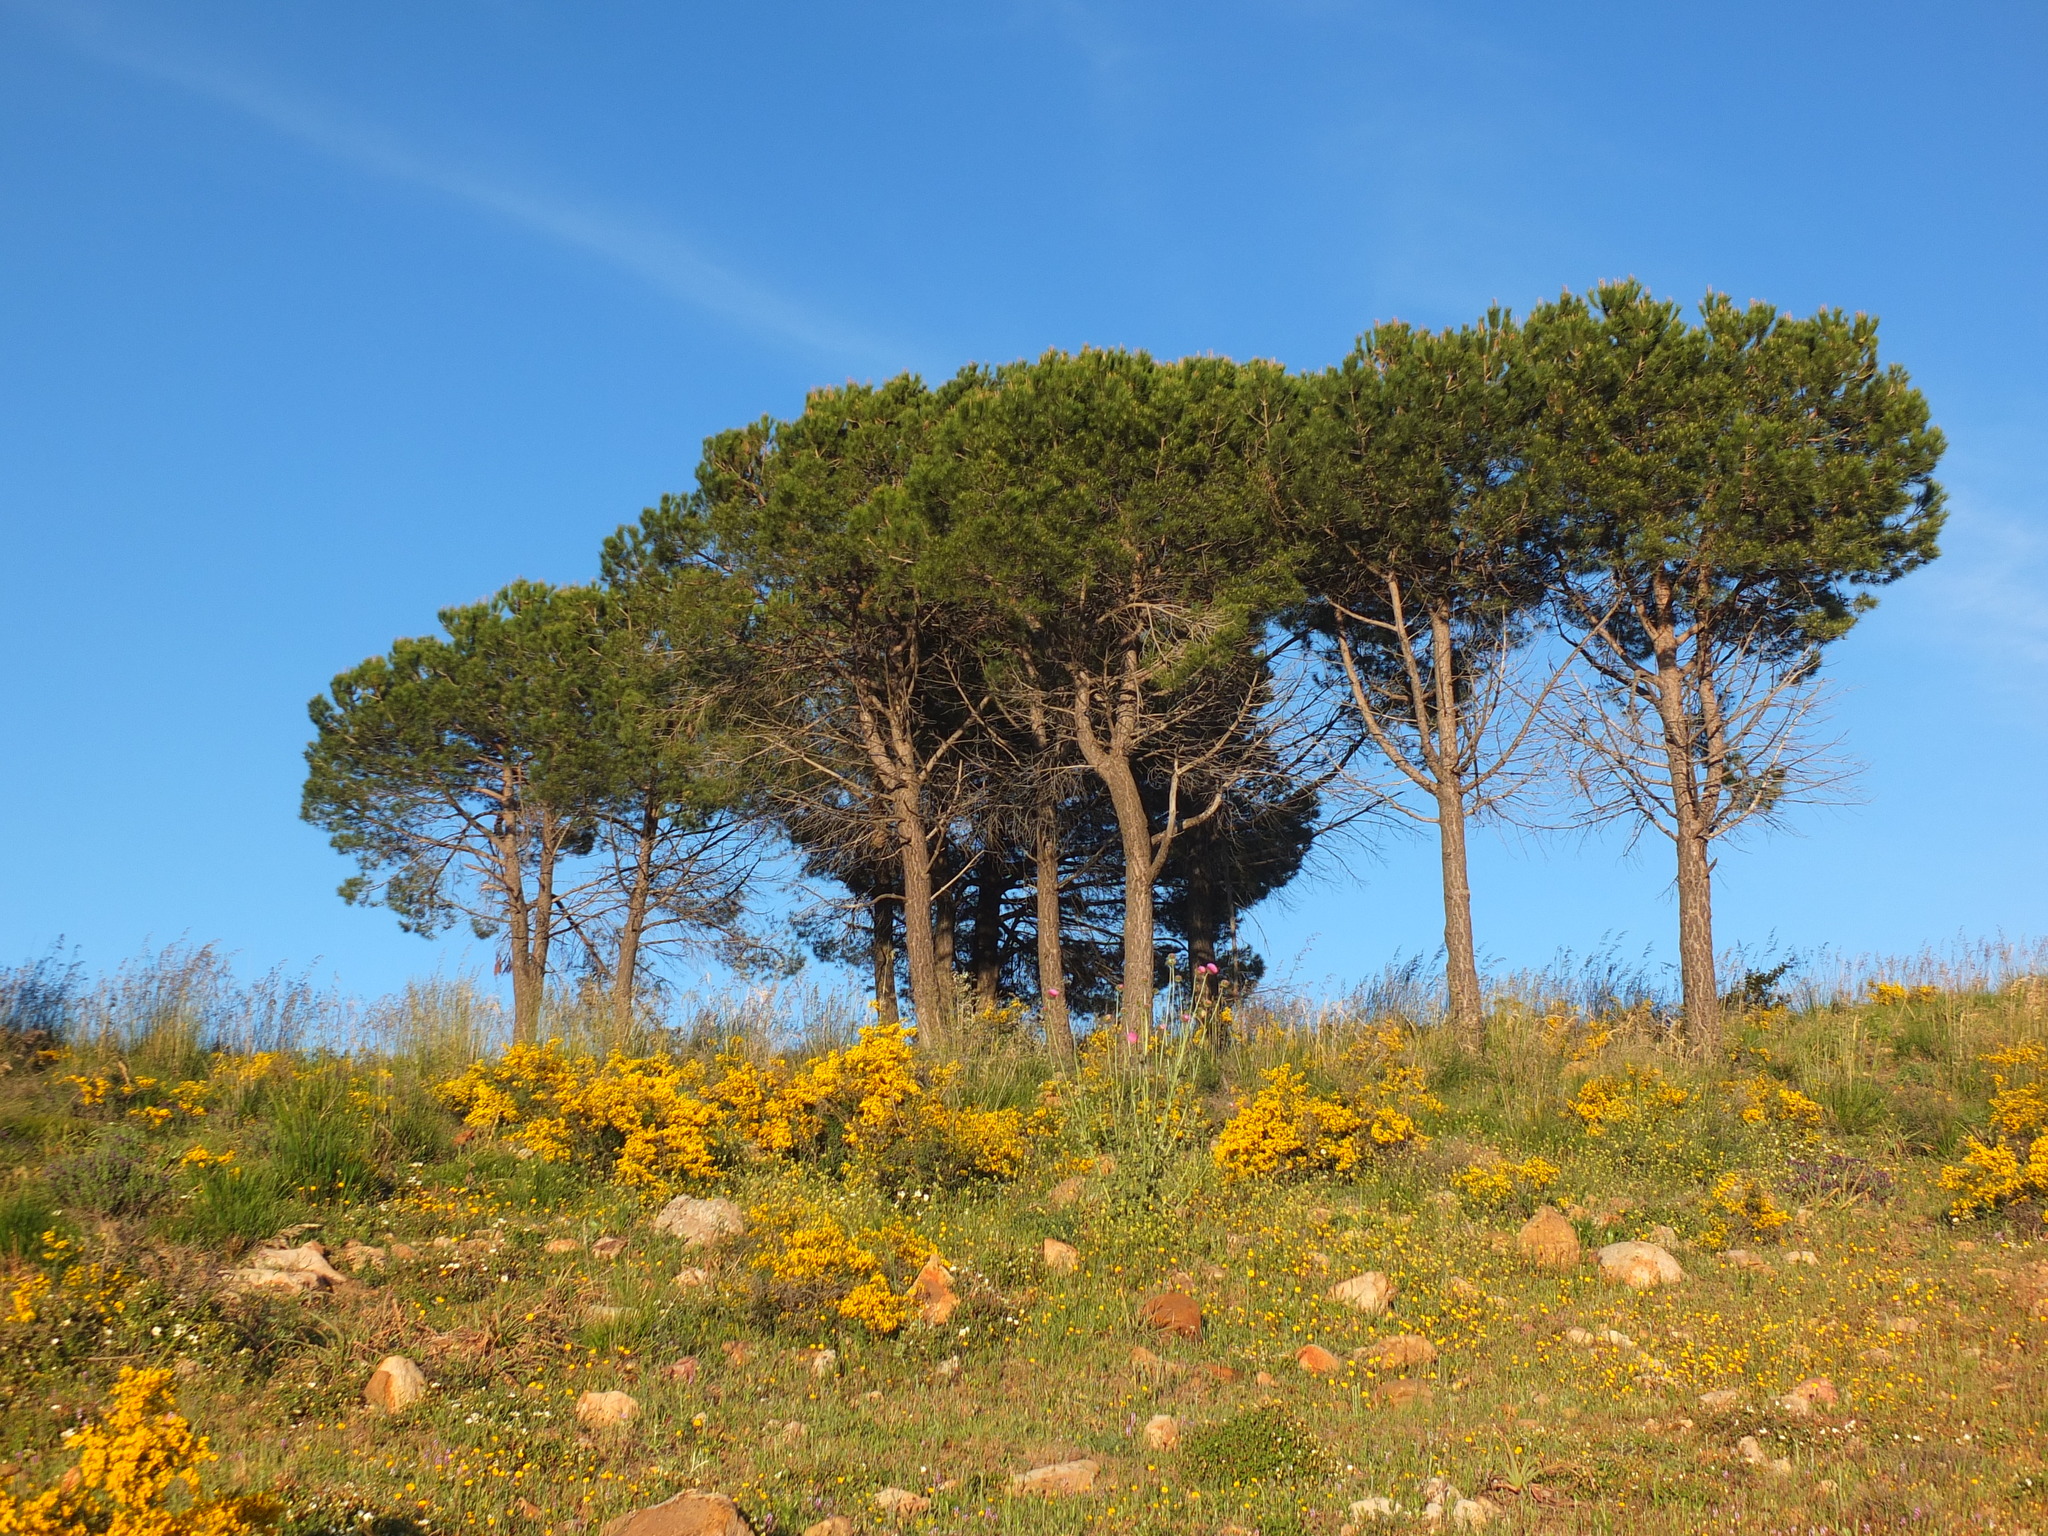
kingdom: Plantae
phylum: Tracheophyta
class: Pinopsida
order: Pinales
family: Pinaceae
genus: Pinus
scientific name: Pinus pinea
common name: Italian stone pine
